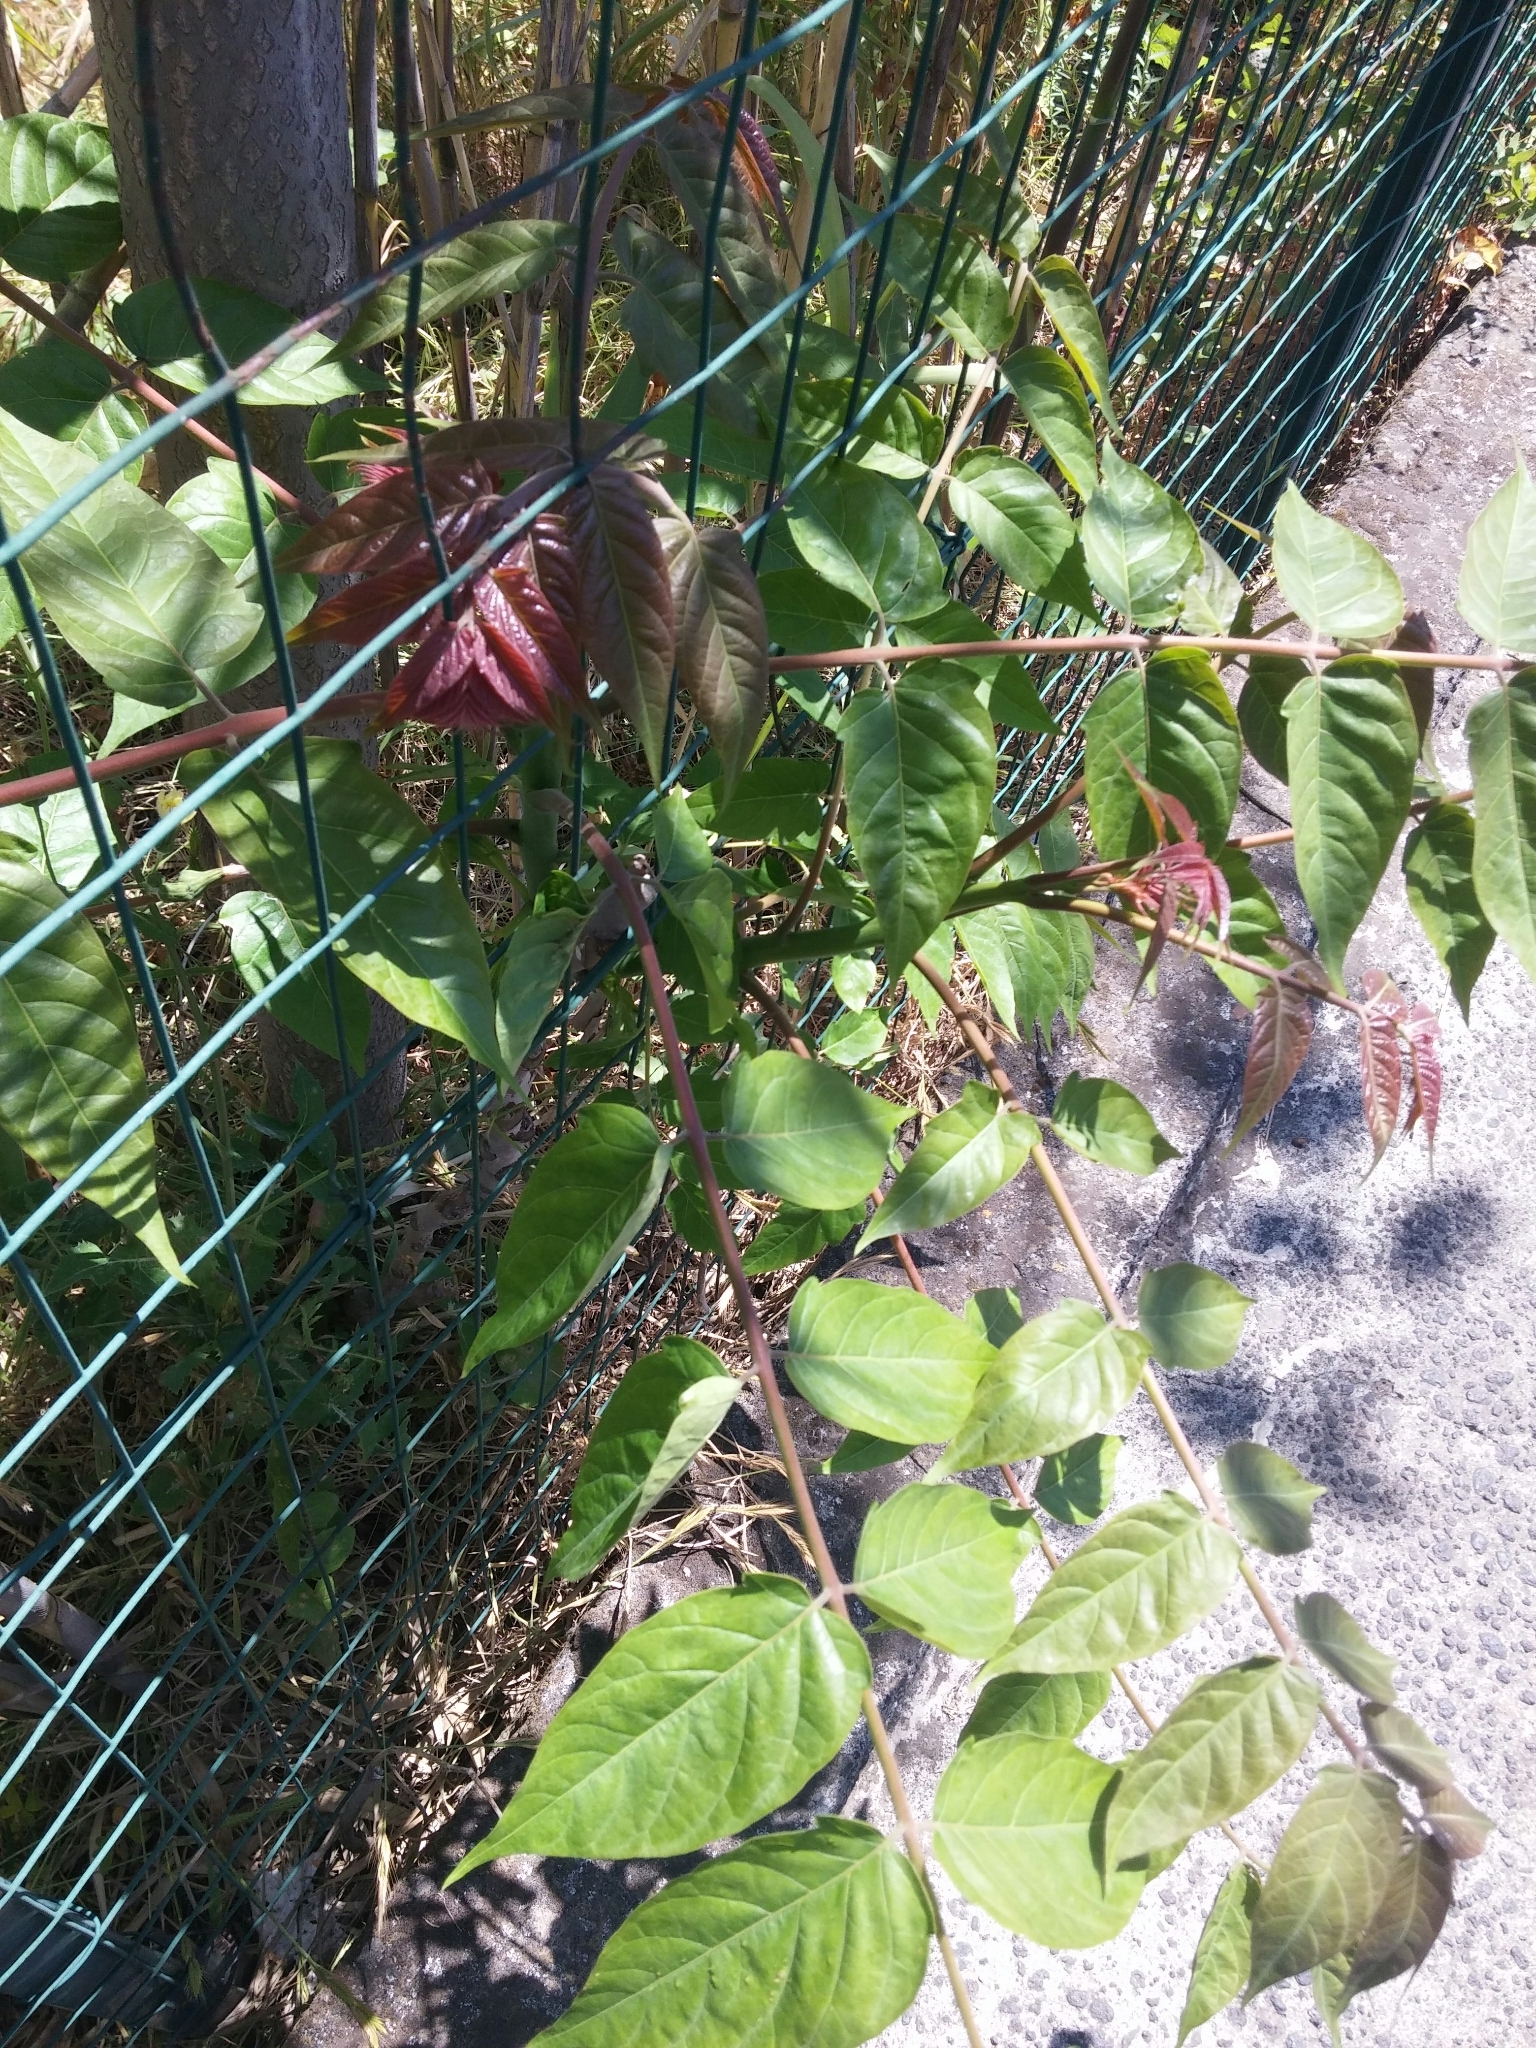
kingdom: Plantae
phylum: Tracheophyta
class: Magnoliopsida
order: Sapindales
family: Simaroubaceae
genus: Ailanthus
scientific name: Ailanthus altissima
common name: Tree-of-heaven
